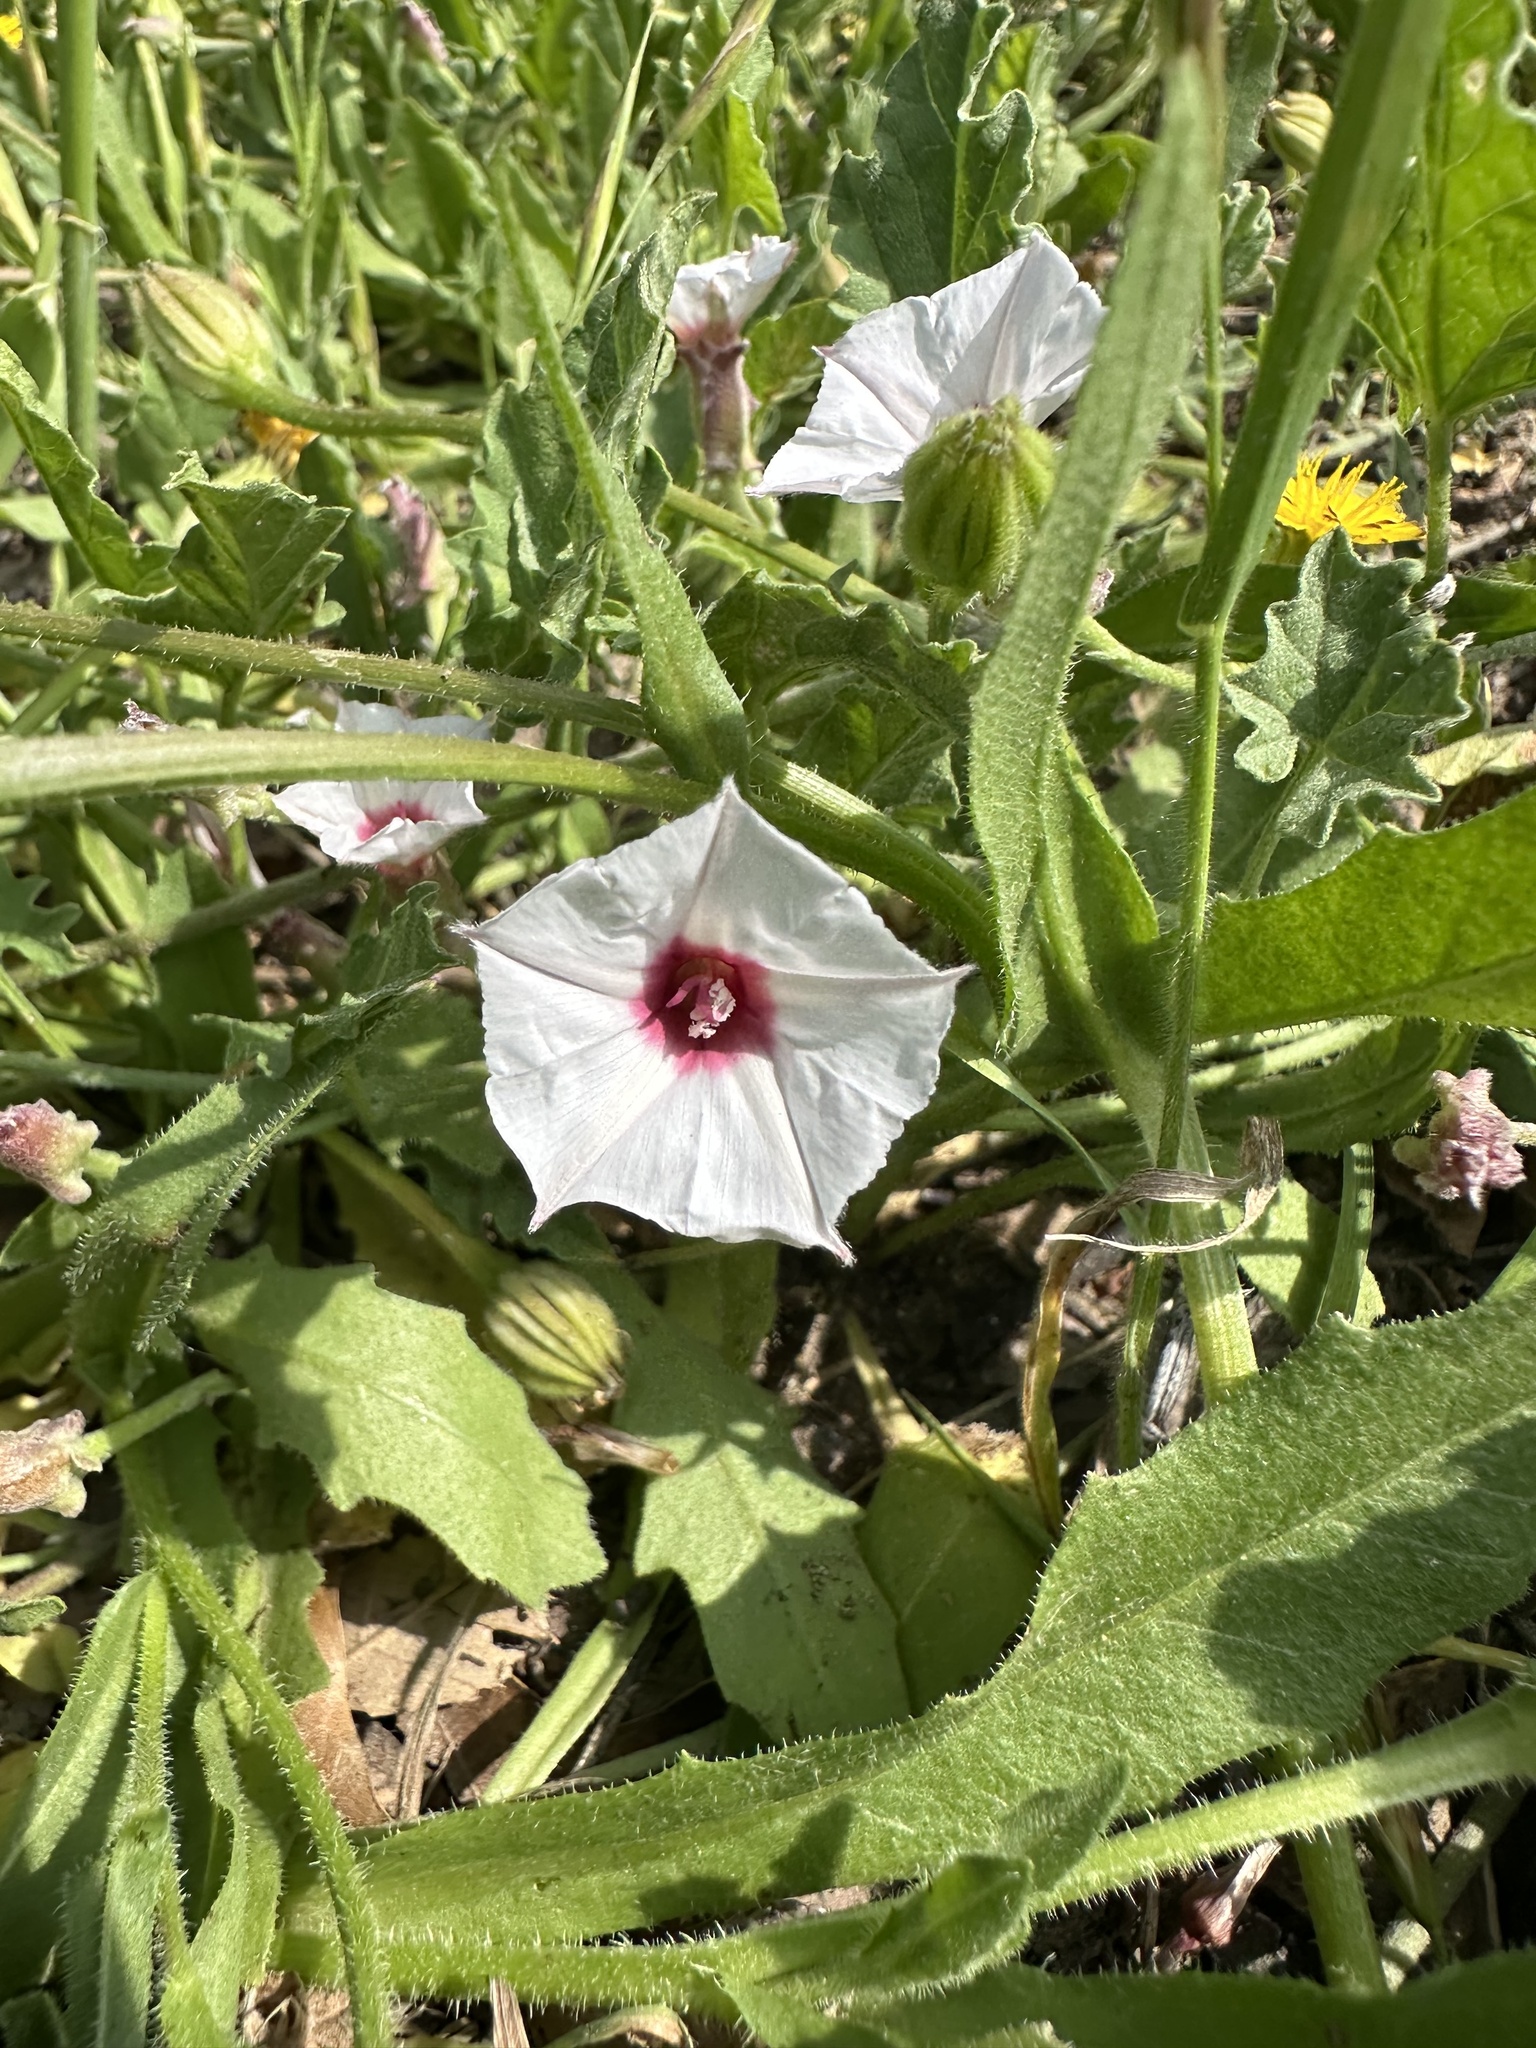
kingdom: Plantae
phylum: Tracheophyta
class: Magnoliopsida
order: Solanales
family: Convolvulaceae
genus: Convolvulus
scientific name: Convolvulus equitans
